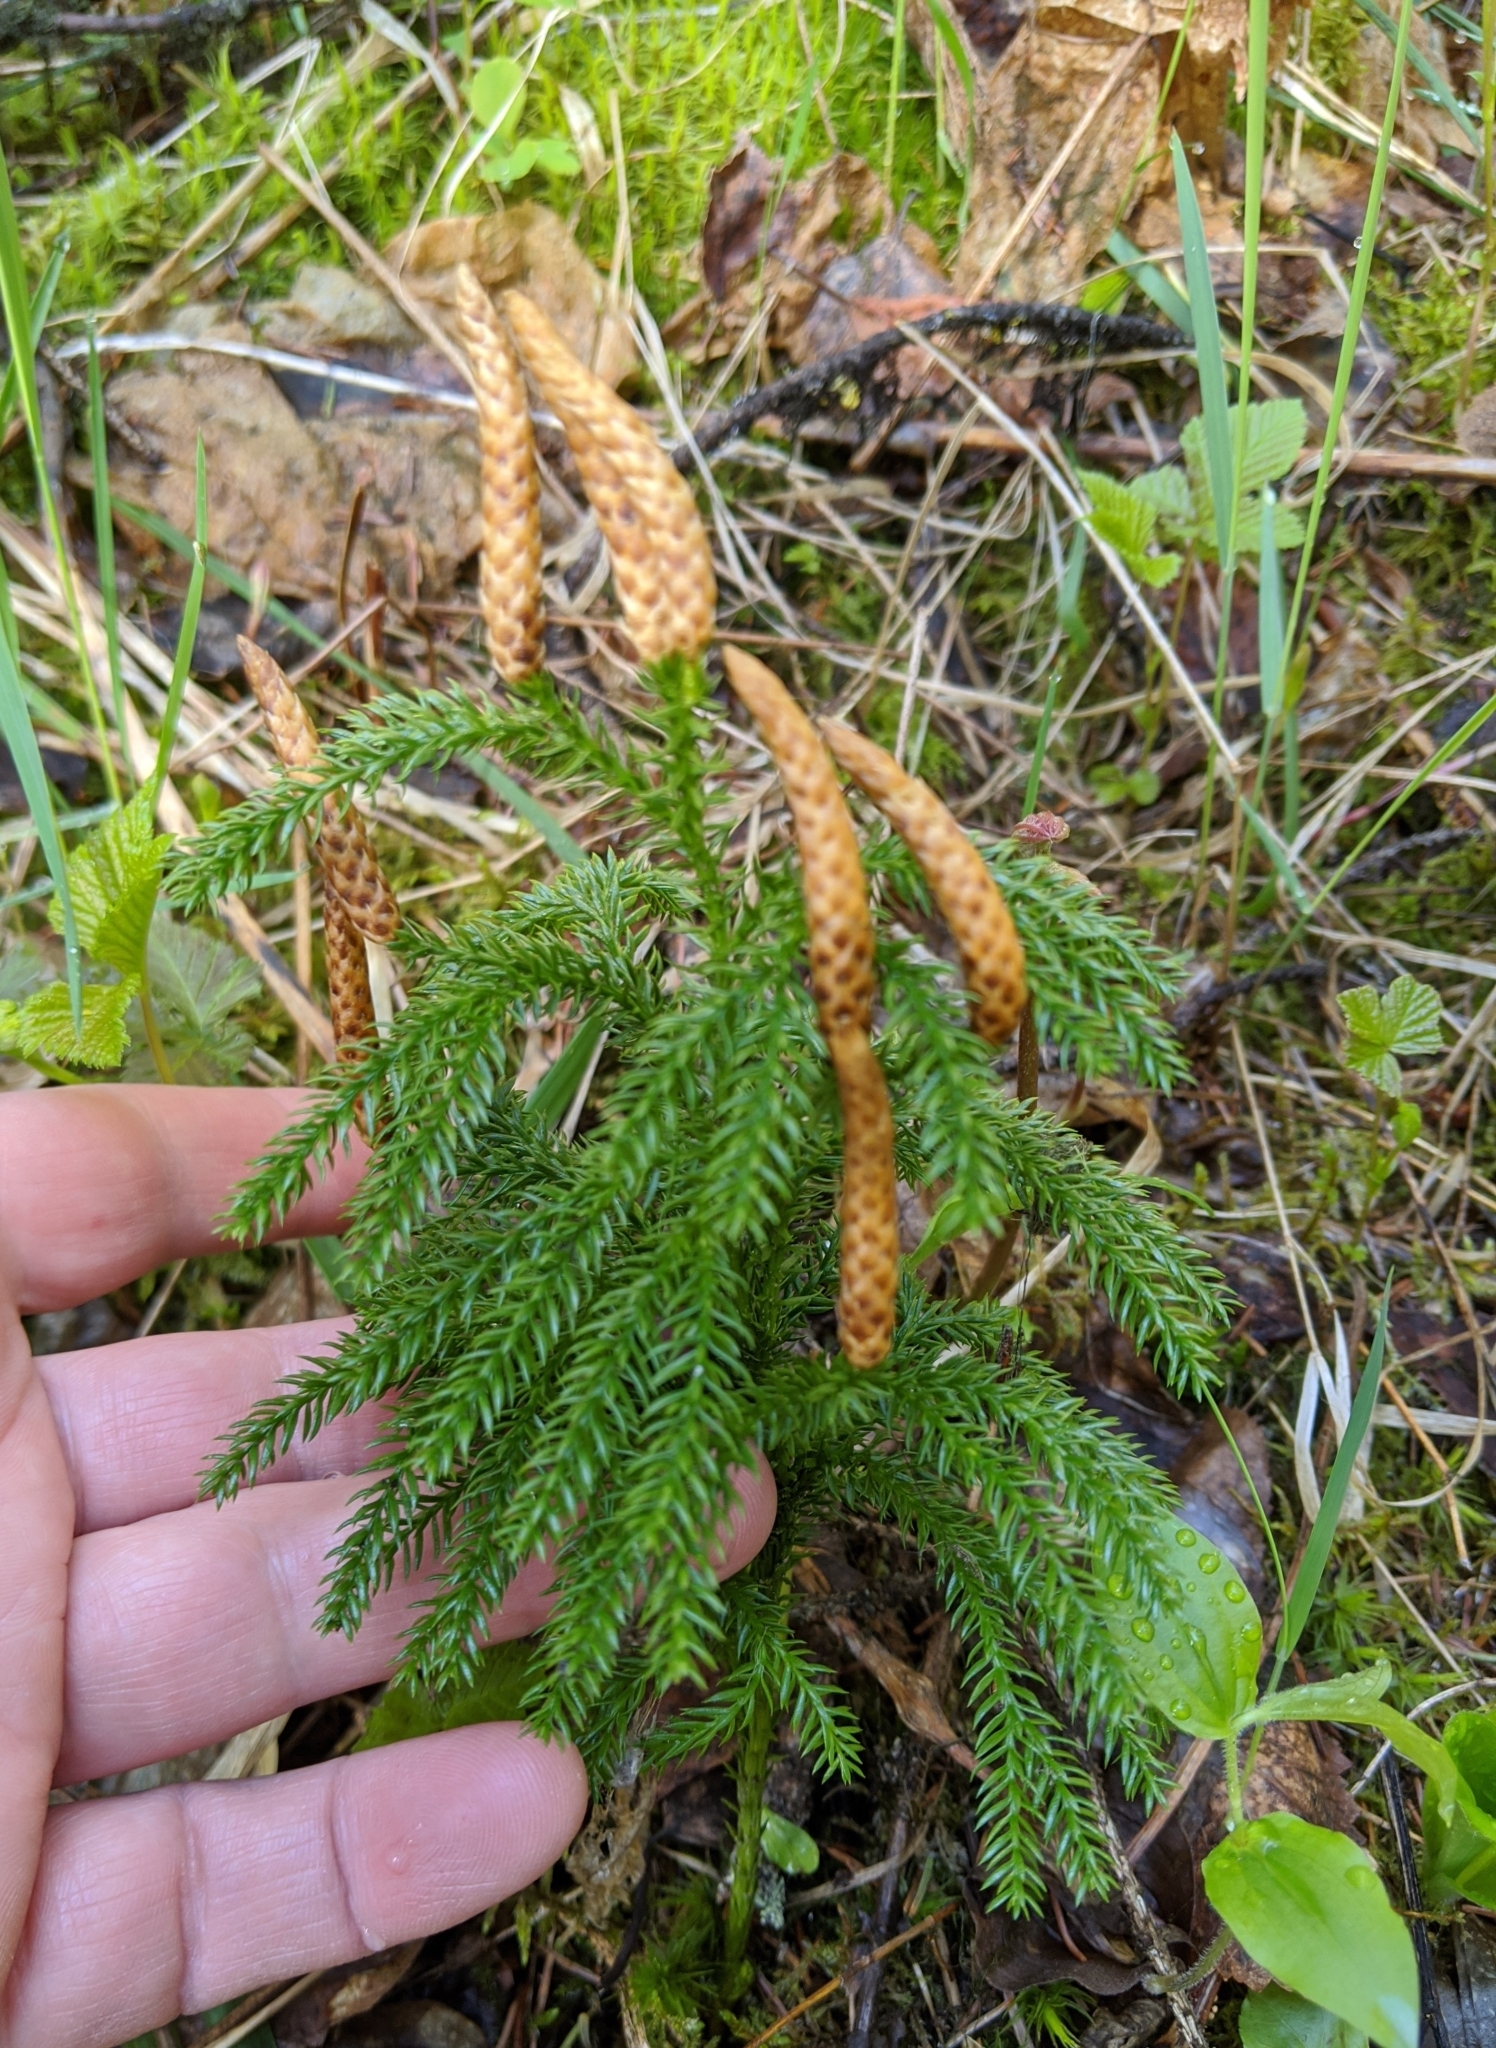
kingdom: Plantae
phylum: Tracheophyta
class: Lycopodiopsida
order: Lycopodiales
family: Lycopodiaceae
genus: Dendrolycopodium
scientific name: Dendrolycopodium dendroideum
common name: Northern tree-clubmoss
